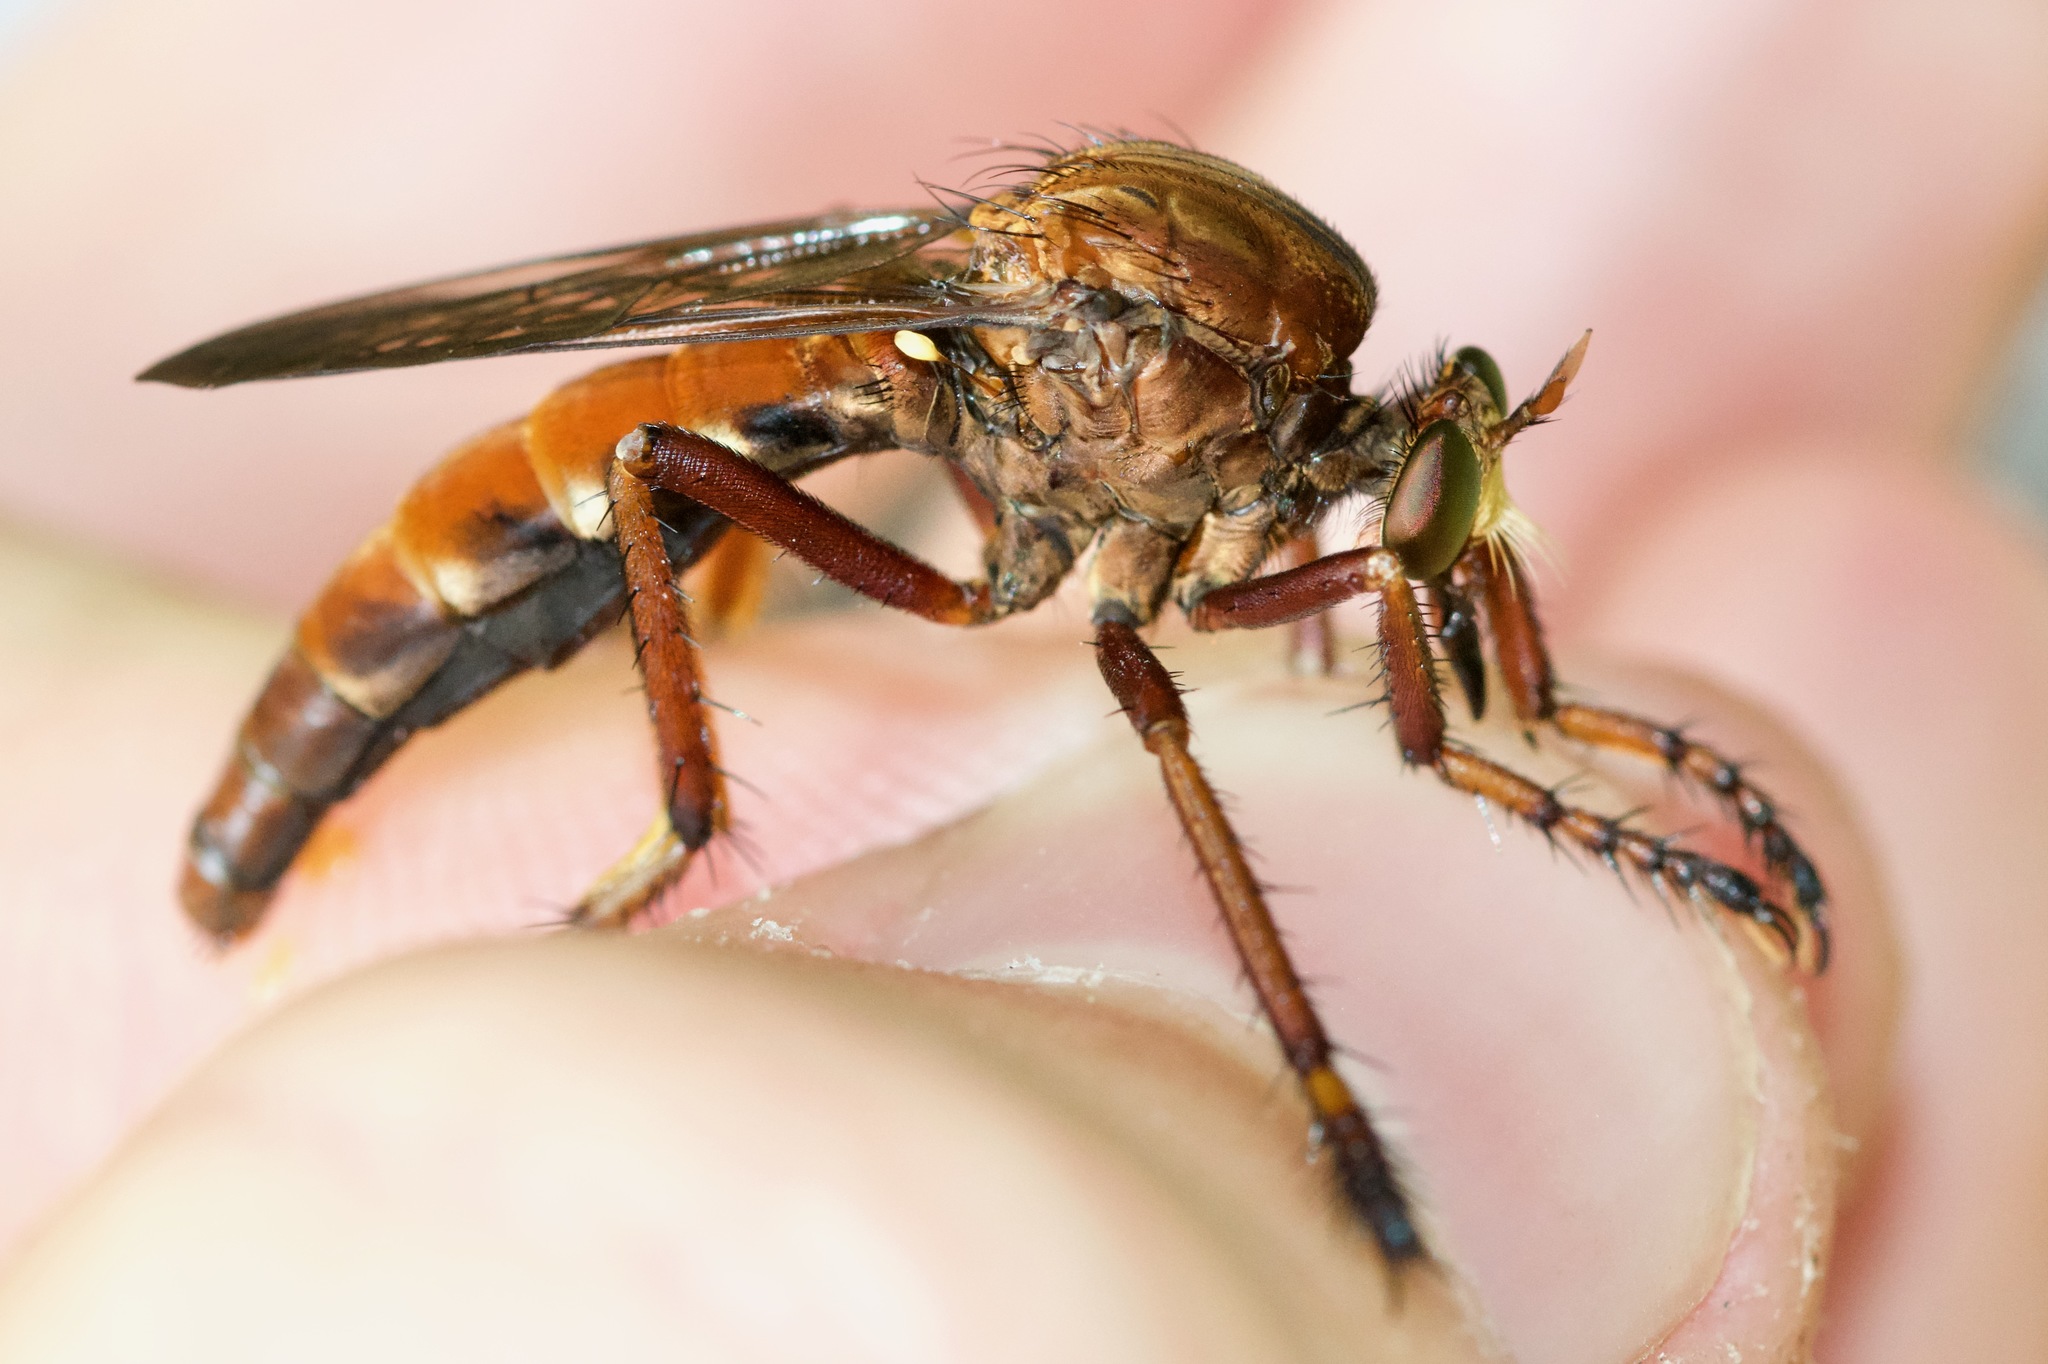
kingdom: Animalia
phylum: Arthropoda
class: Insecta
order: Diptera
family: Asilidae
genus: Diogmites
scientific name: Diogmites basalis
